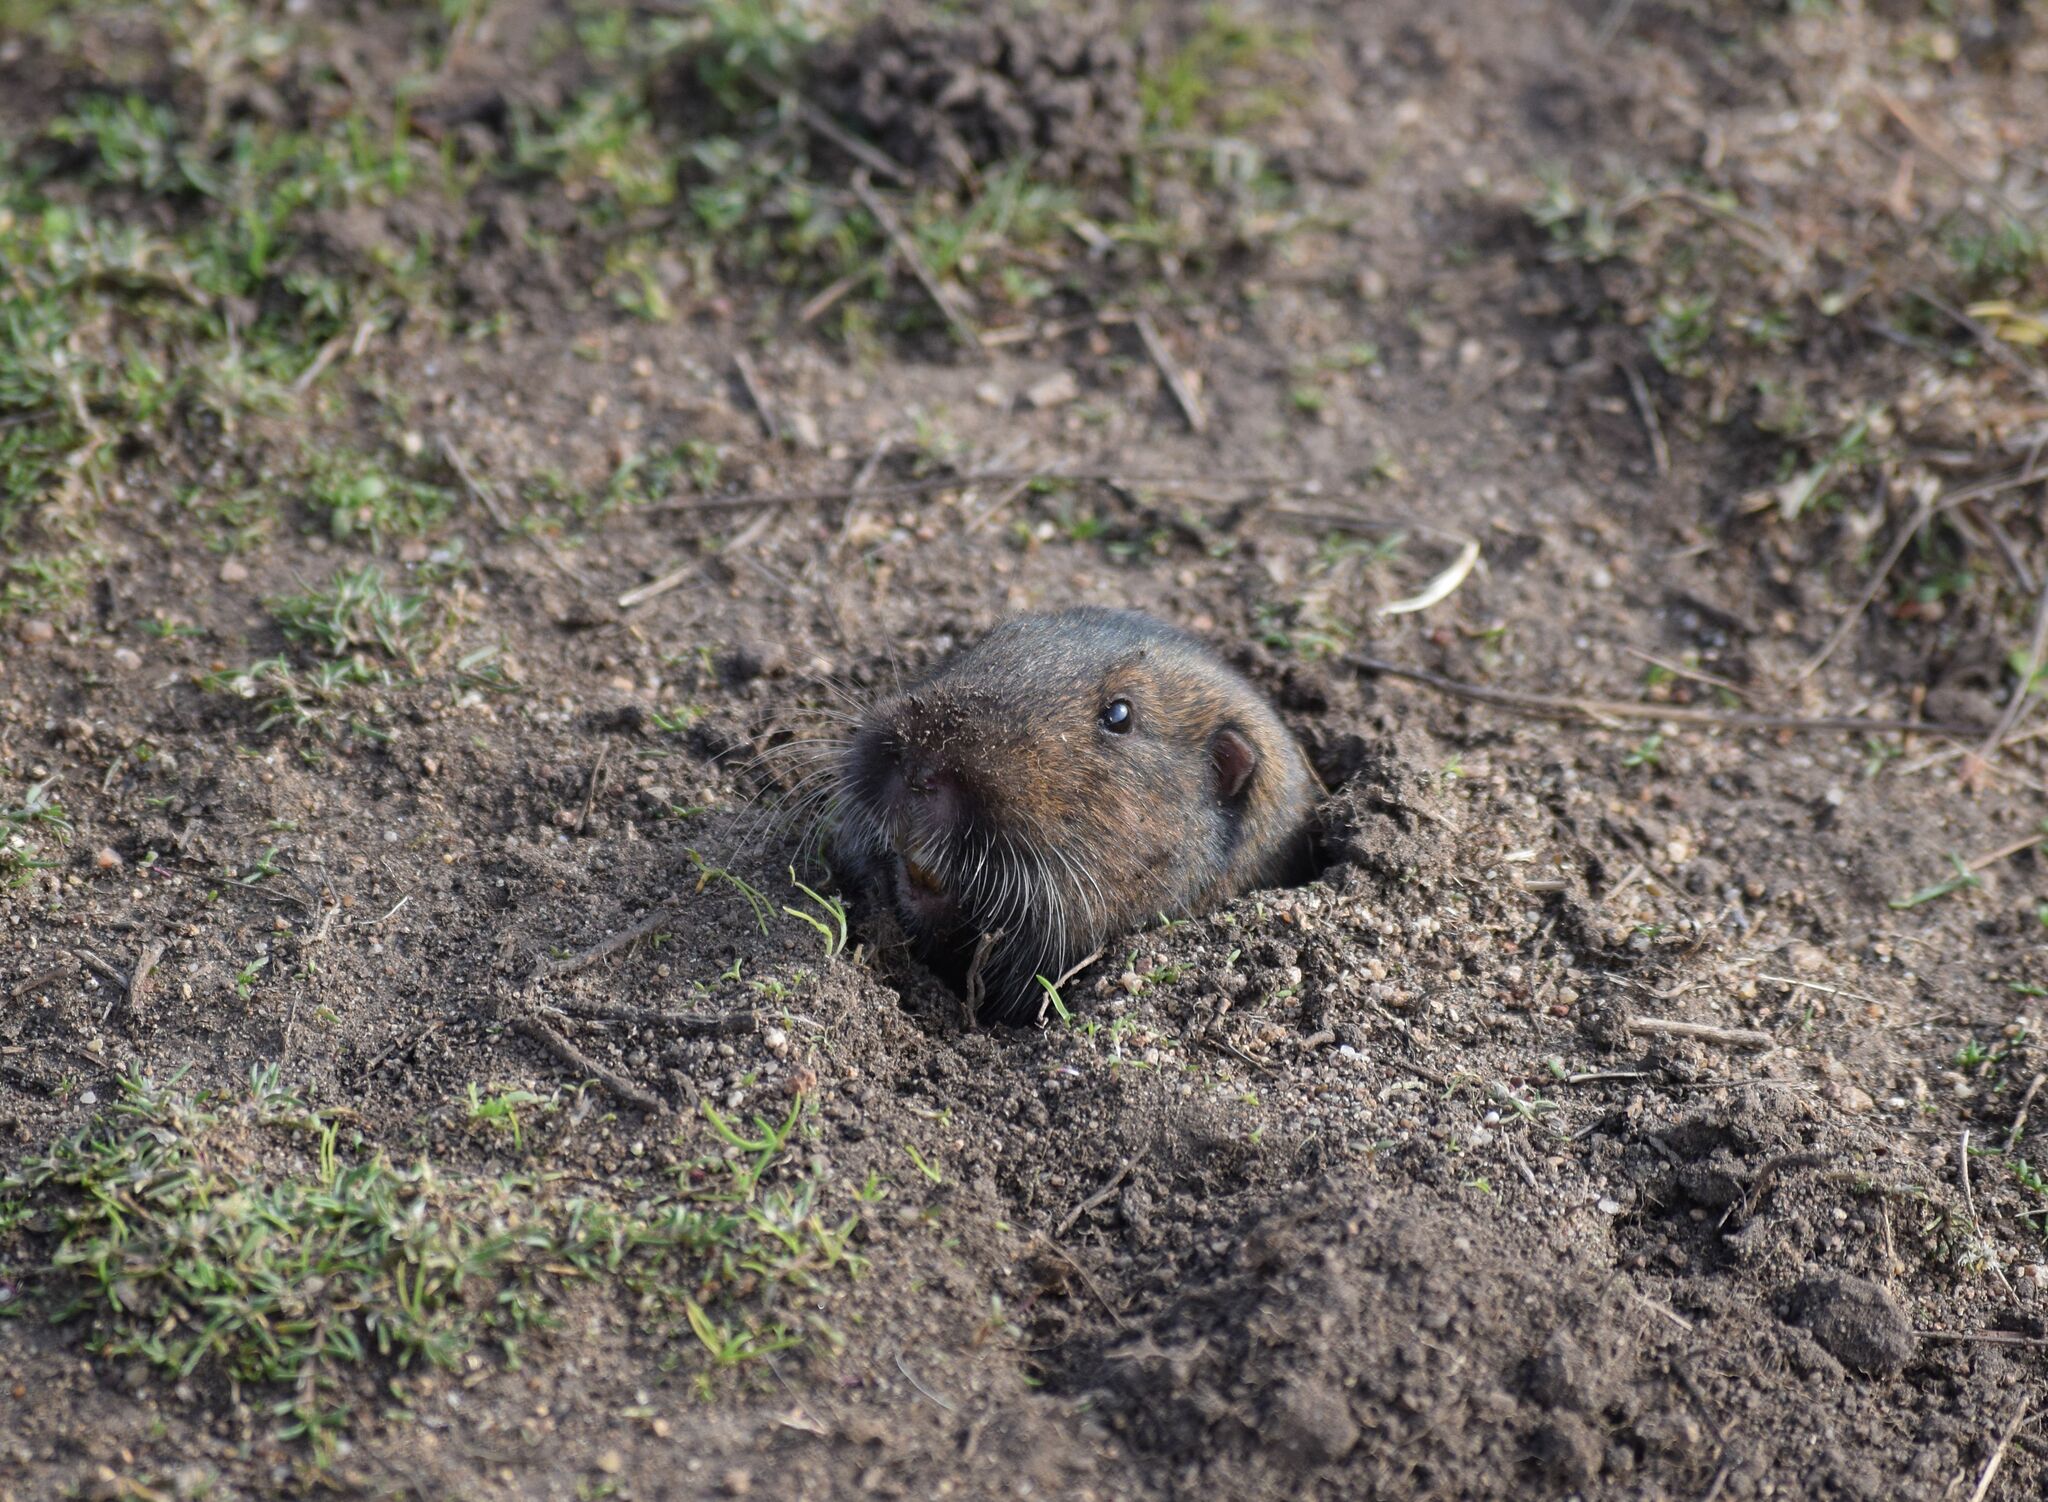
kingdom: Animalia
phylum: Chordata
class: Mammalia
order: Rodentia
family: Geomyidae
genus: Thomomys
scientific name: Thomomys bottae
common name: Botta's pocket gopher
